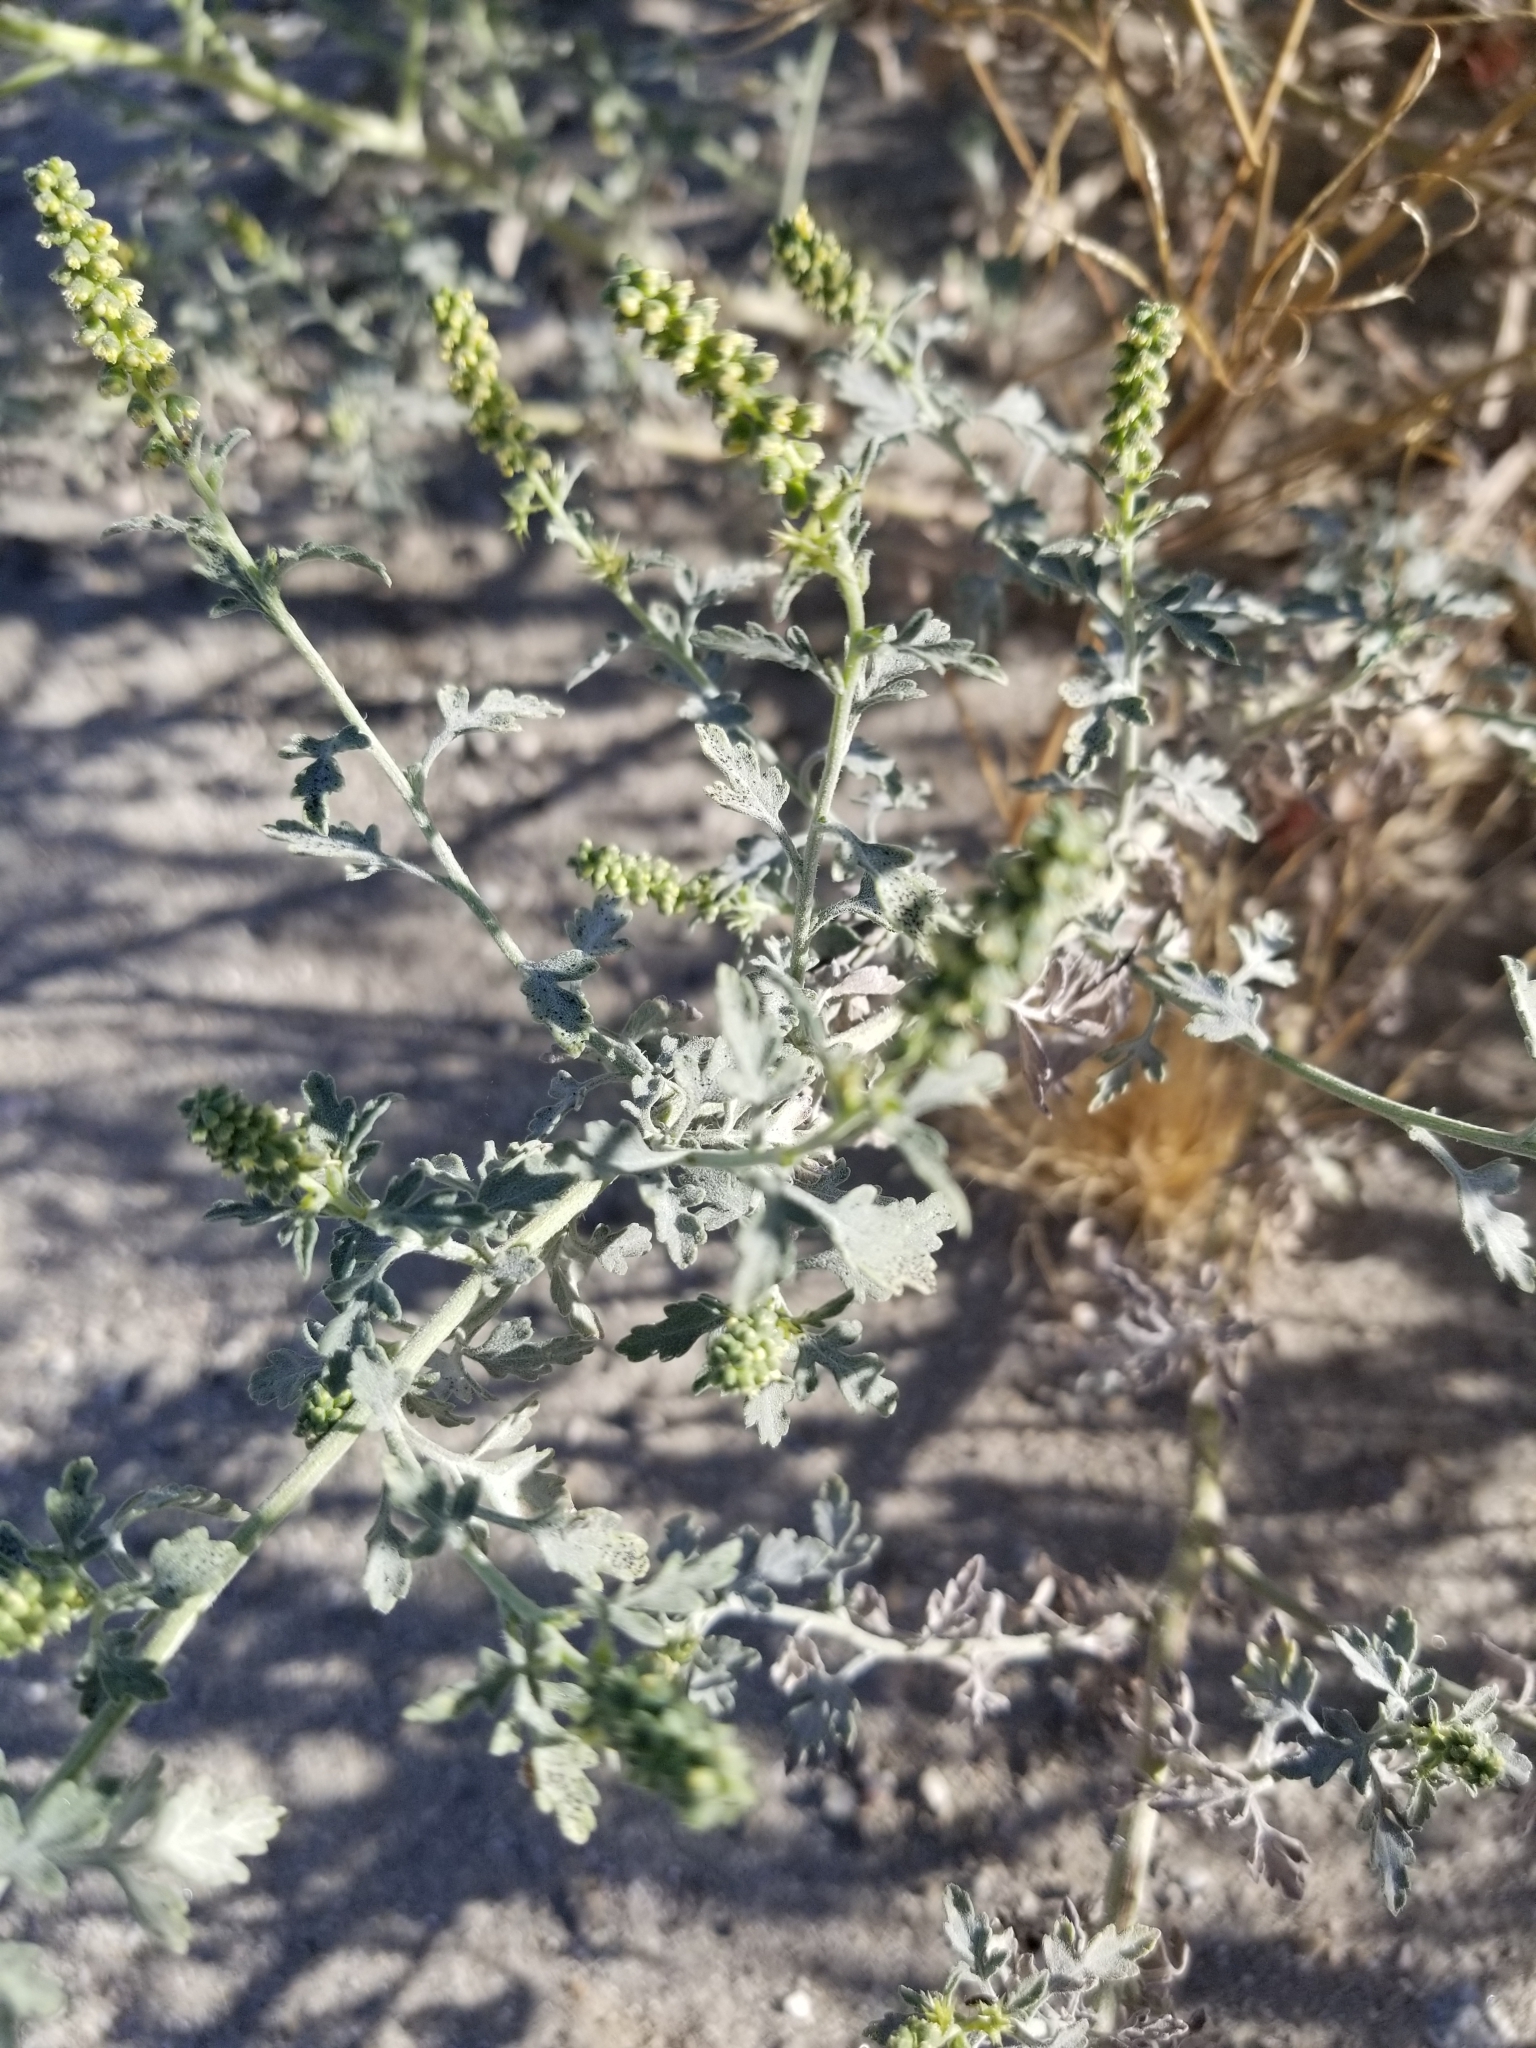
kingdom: Plantae
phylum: Tracheophyta
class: Magnoliopsida
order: Asterales
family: Asteraceae
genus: Ambrosia
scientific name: Ambrosia dumosa
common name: Bur-sage
